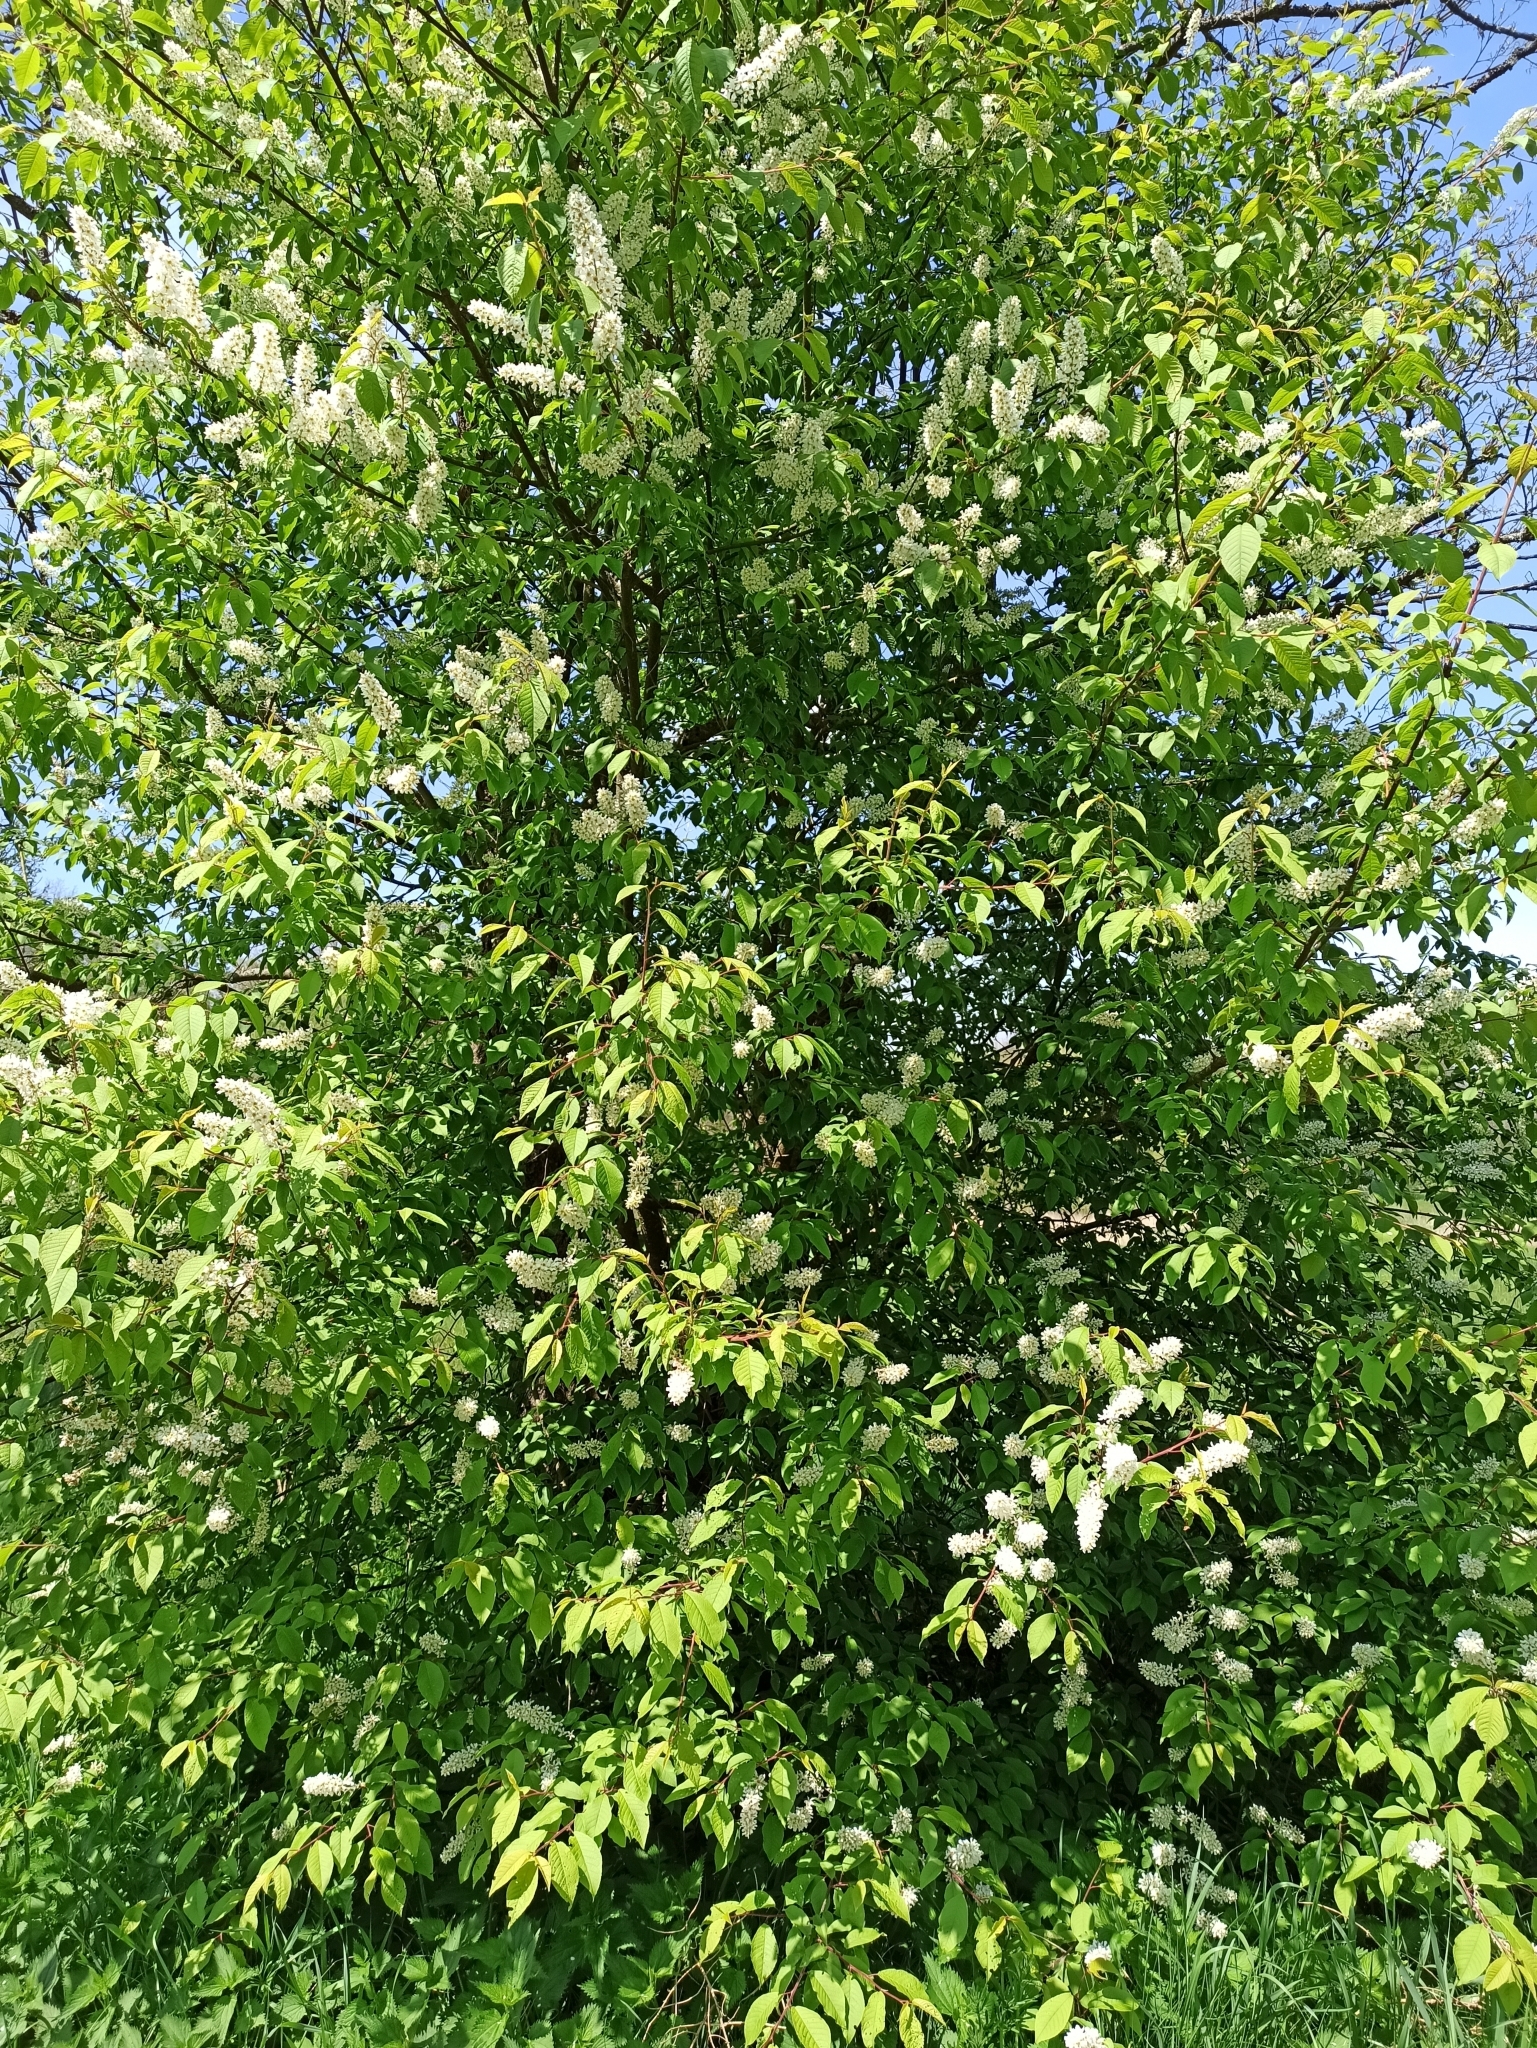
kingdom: Plantae
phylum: Tracheophyta
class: Magnoliopsida
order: Rosales
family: Rosaceae
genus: Prunus
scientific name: Prunus padus
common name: Bird cherry
